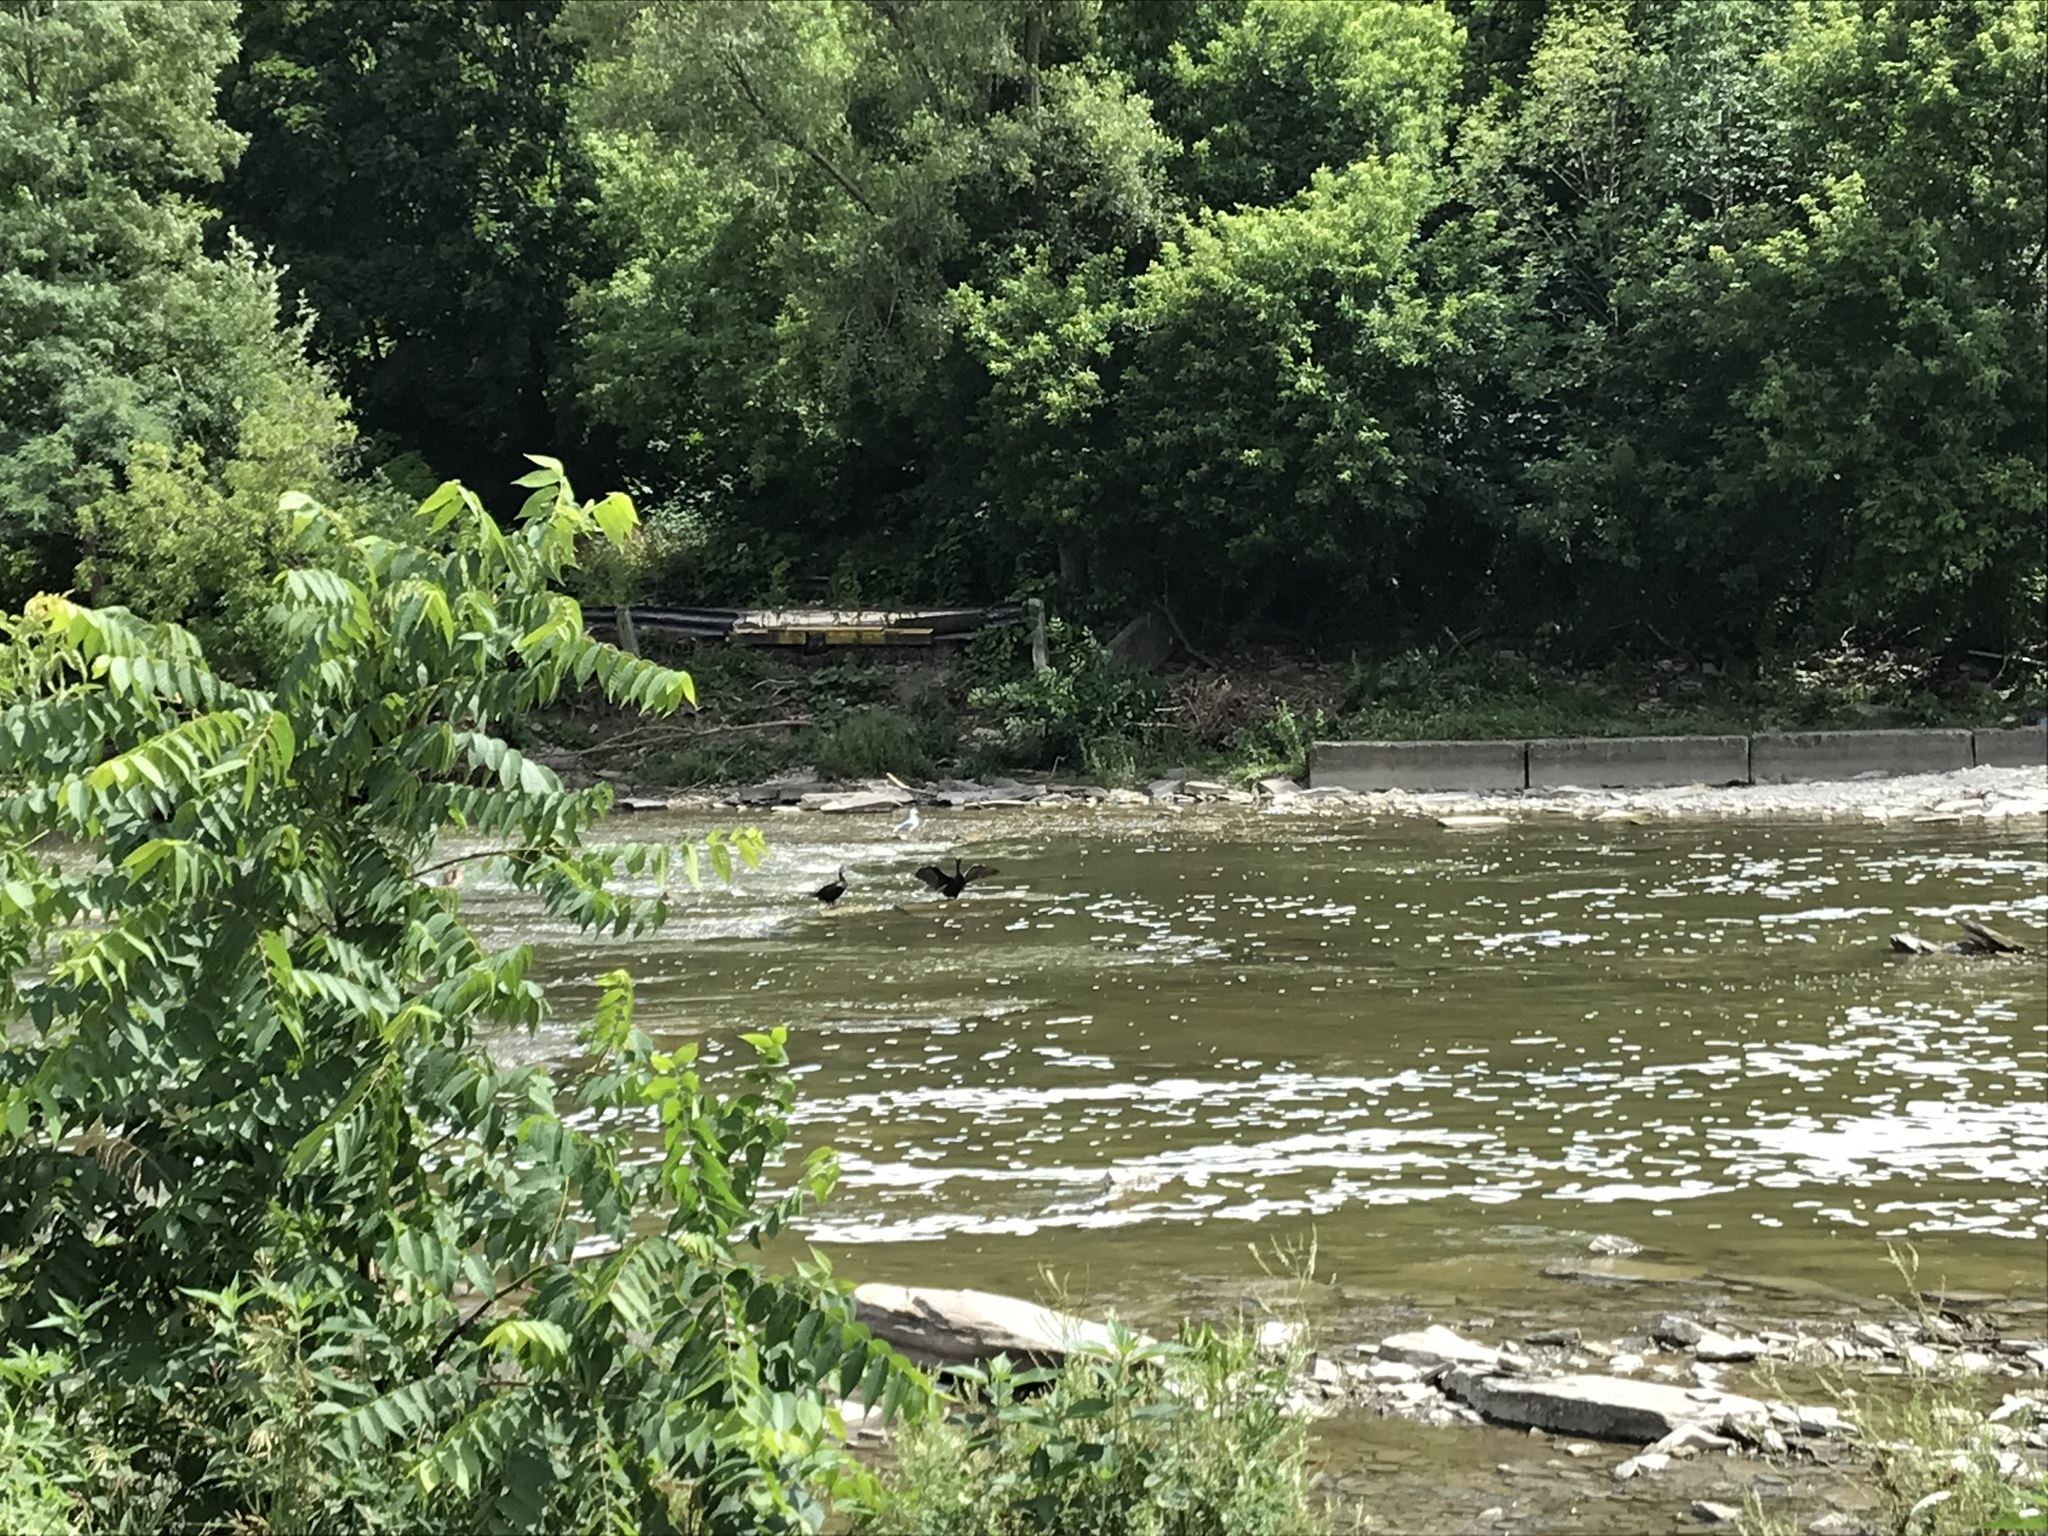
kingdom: Animalia
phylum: Chordata
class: Aves
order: Suliformes
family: Phalacrocoracidae
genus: Phalacrocorax
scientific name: Phalacrocorax auritus
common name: Double-crested cormorant
